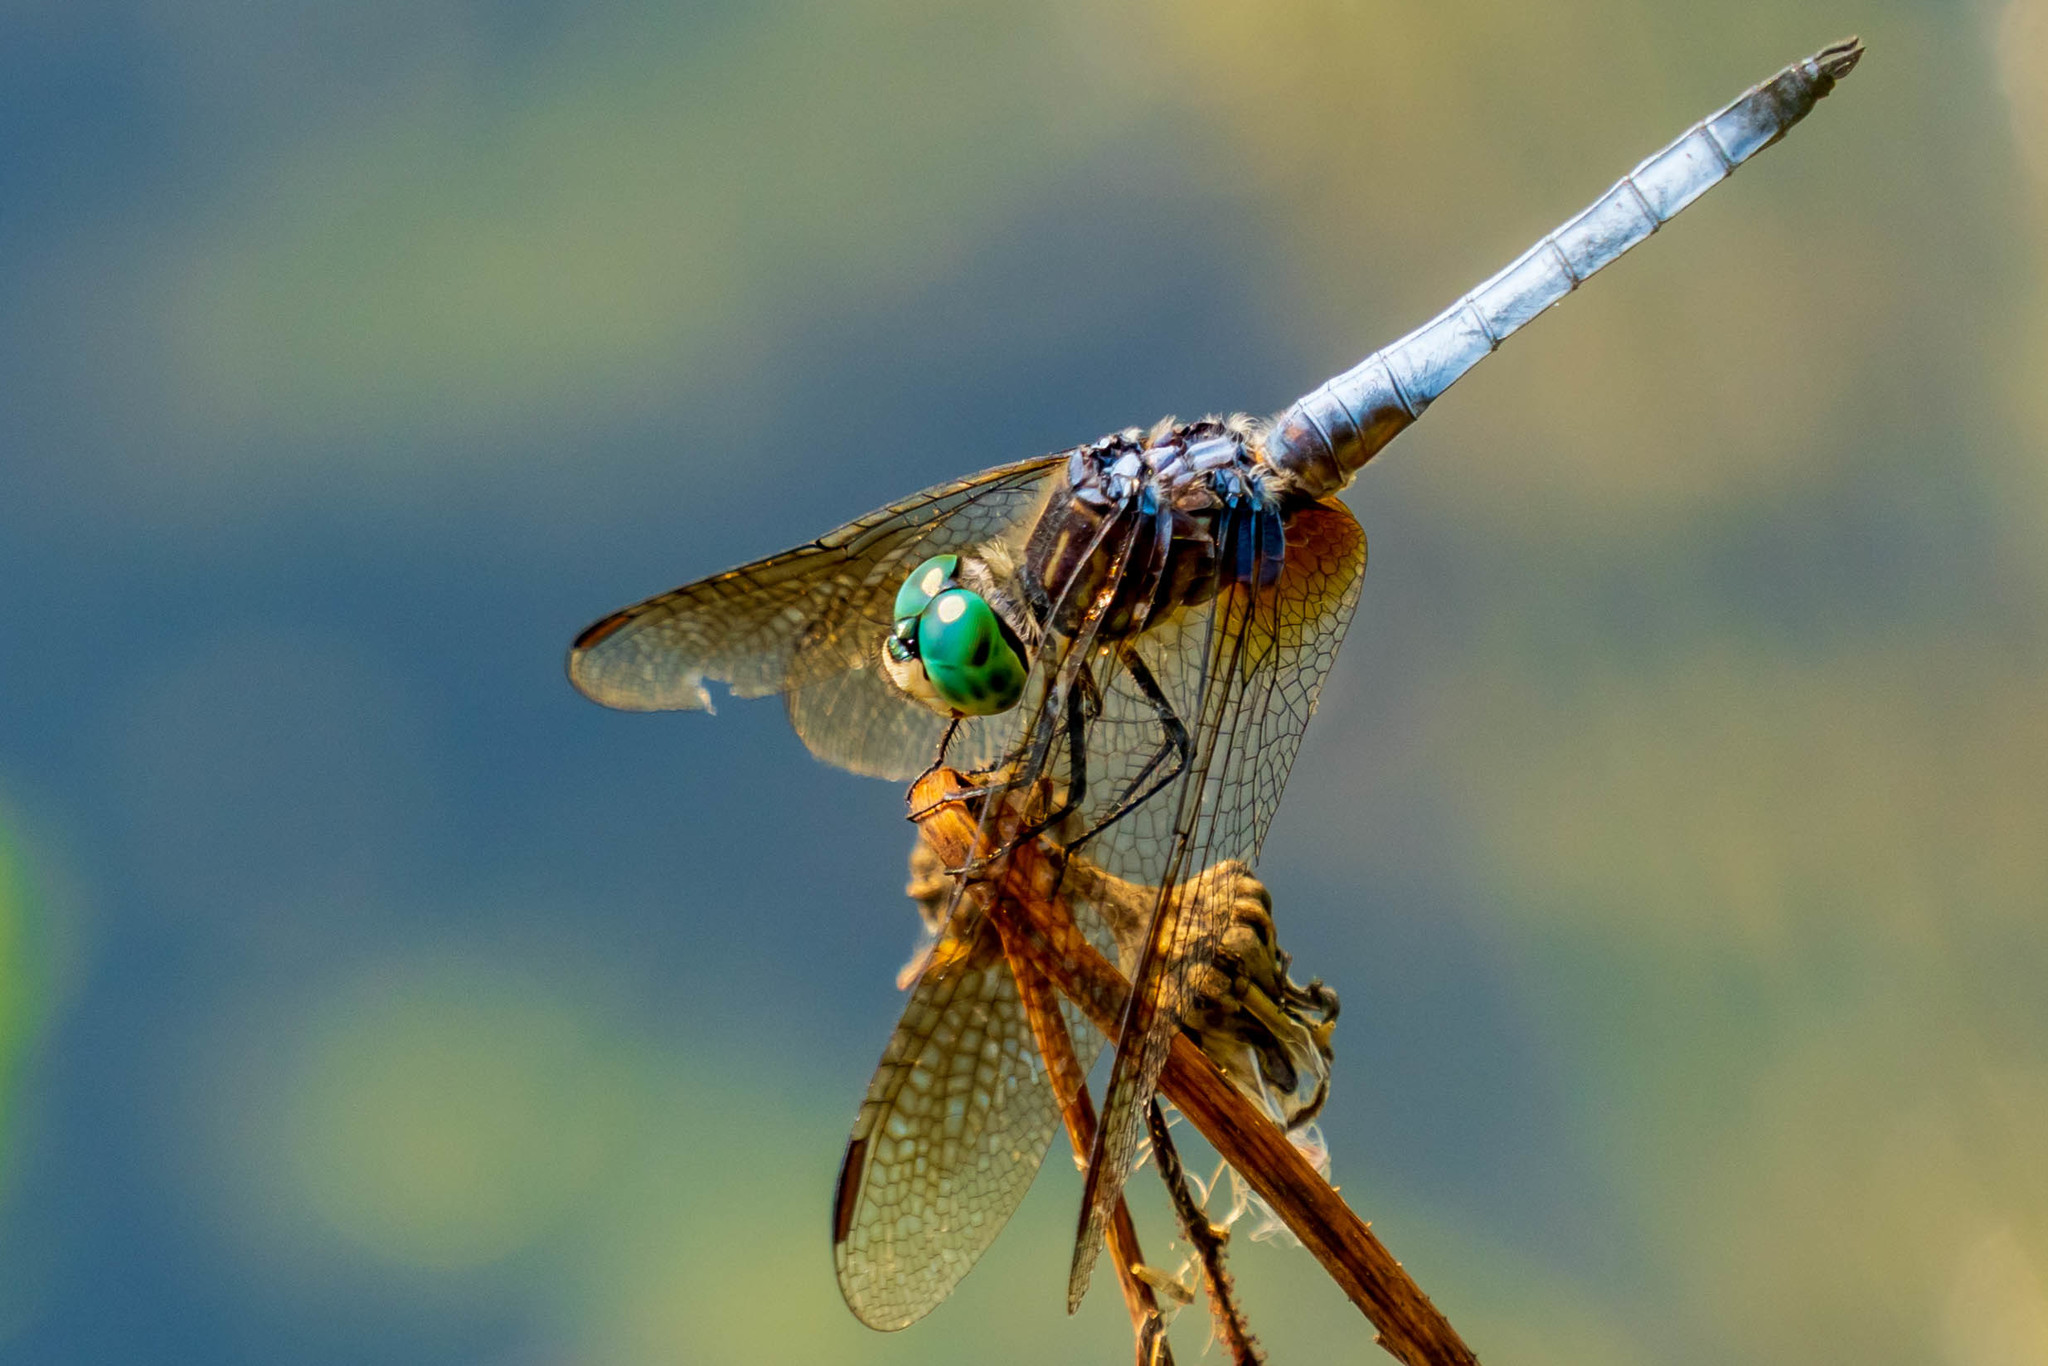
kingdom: Animalia
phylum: Arthropoda
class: Insecta
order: Odonata
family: Libellulidae
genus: Pachydiplax
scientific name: Pachydiplax longipennis
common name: Blue dasher
